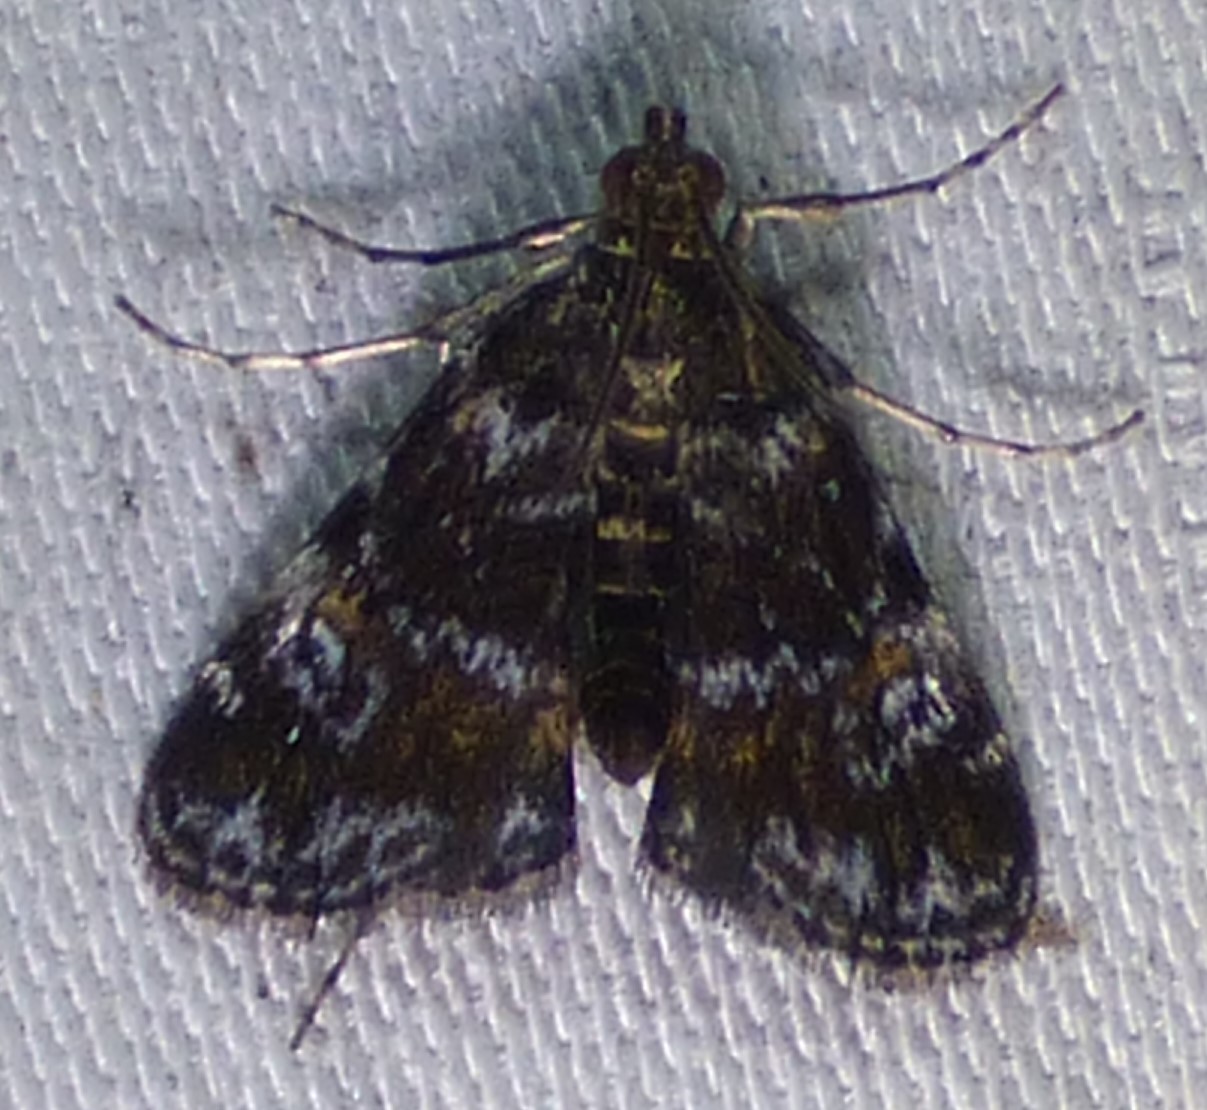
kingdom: Animalia
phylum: Arthropoda
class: Insecta
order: Lepidoptera
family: Crambidae
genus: Elophila
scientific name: Elophila obliteralis
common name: Waterlily leafcutter moth
